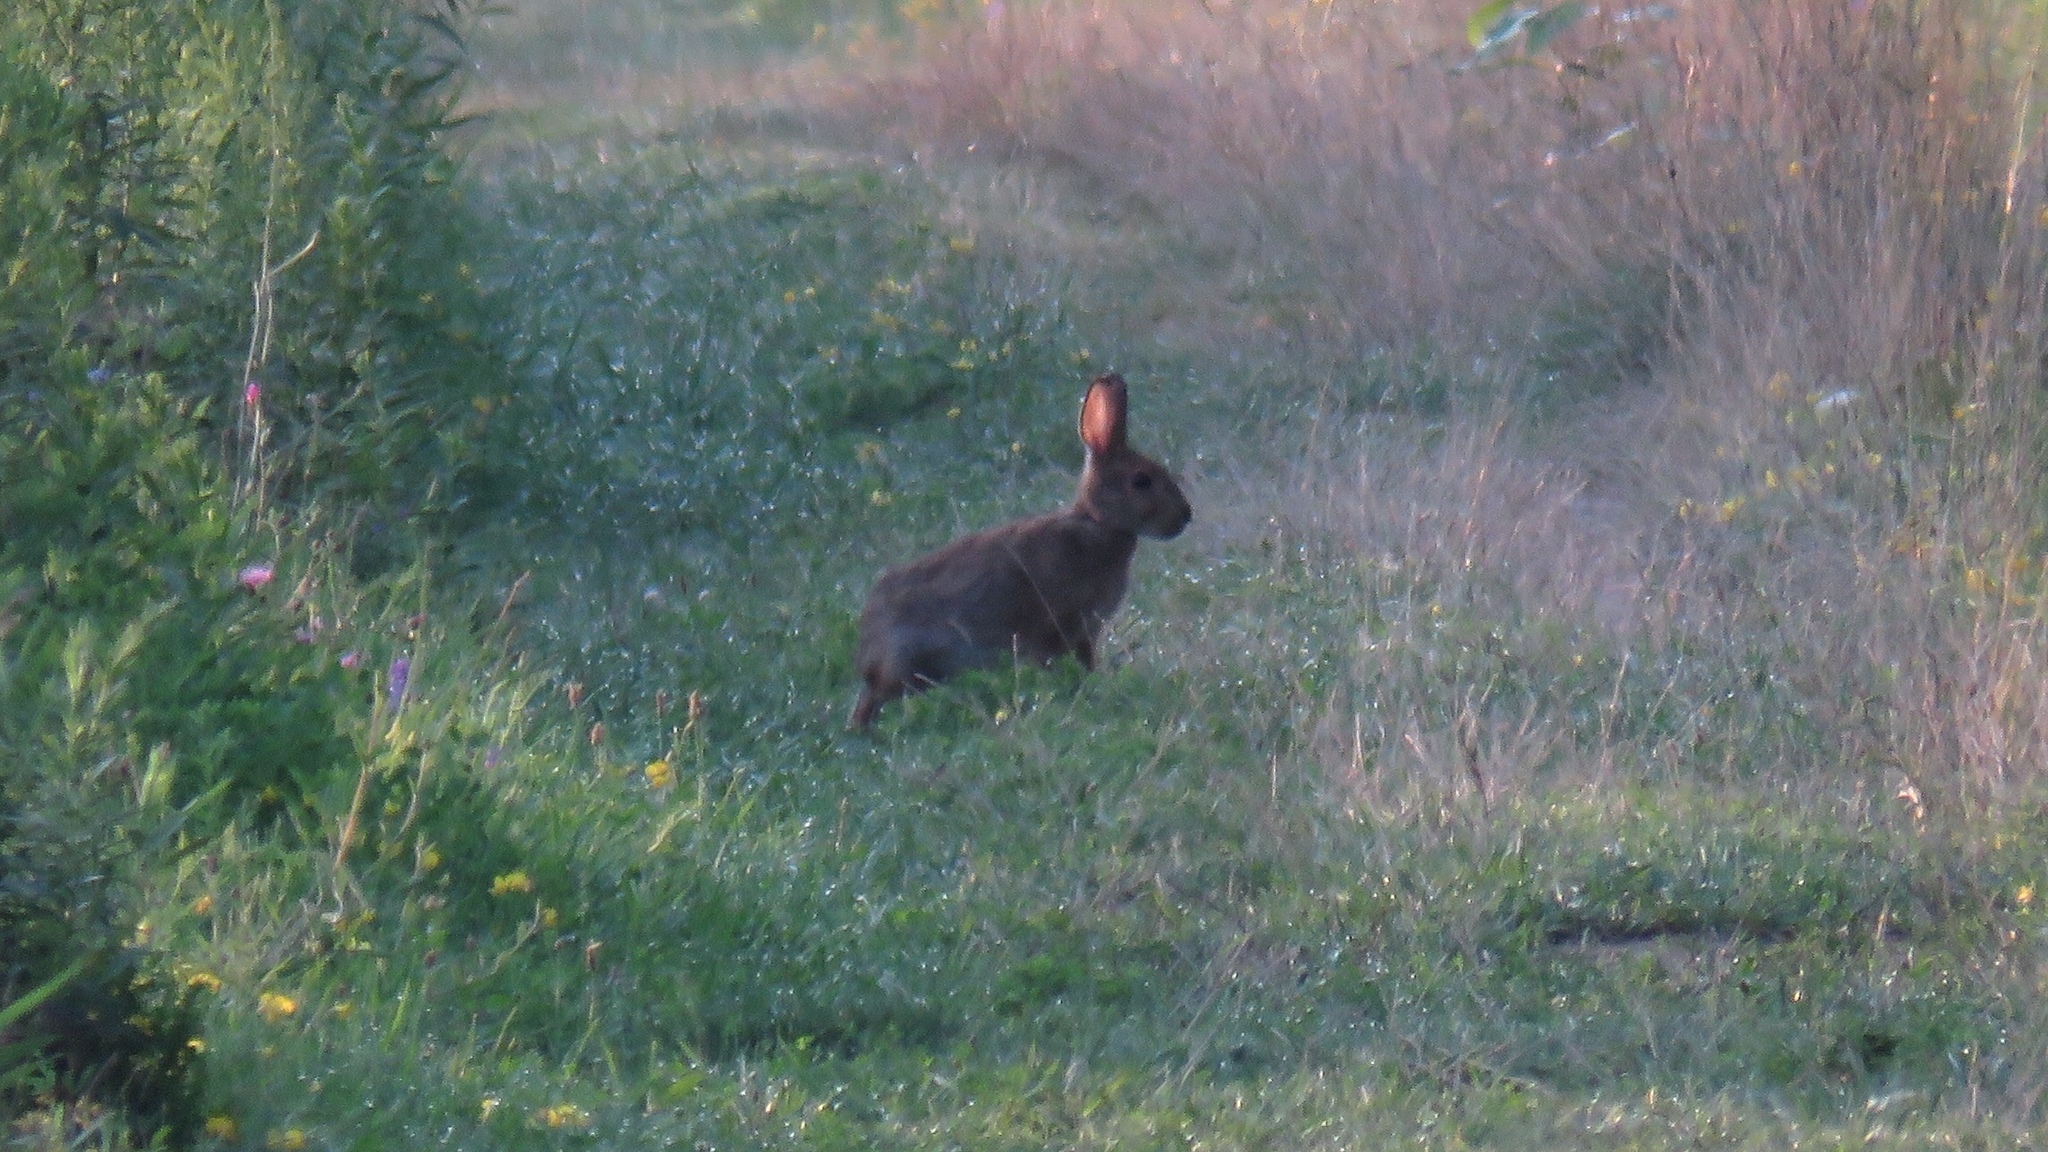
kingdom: Animalia
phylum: Chordata
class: Mammalia
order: Lagomorpha
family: Leporidae
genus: Lepus
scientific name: Lepus americanus
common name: Snowshoe hare
